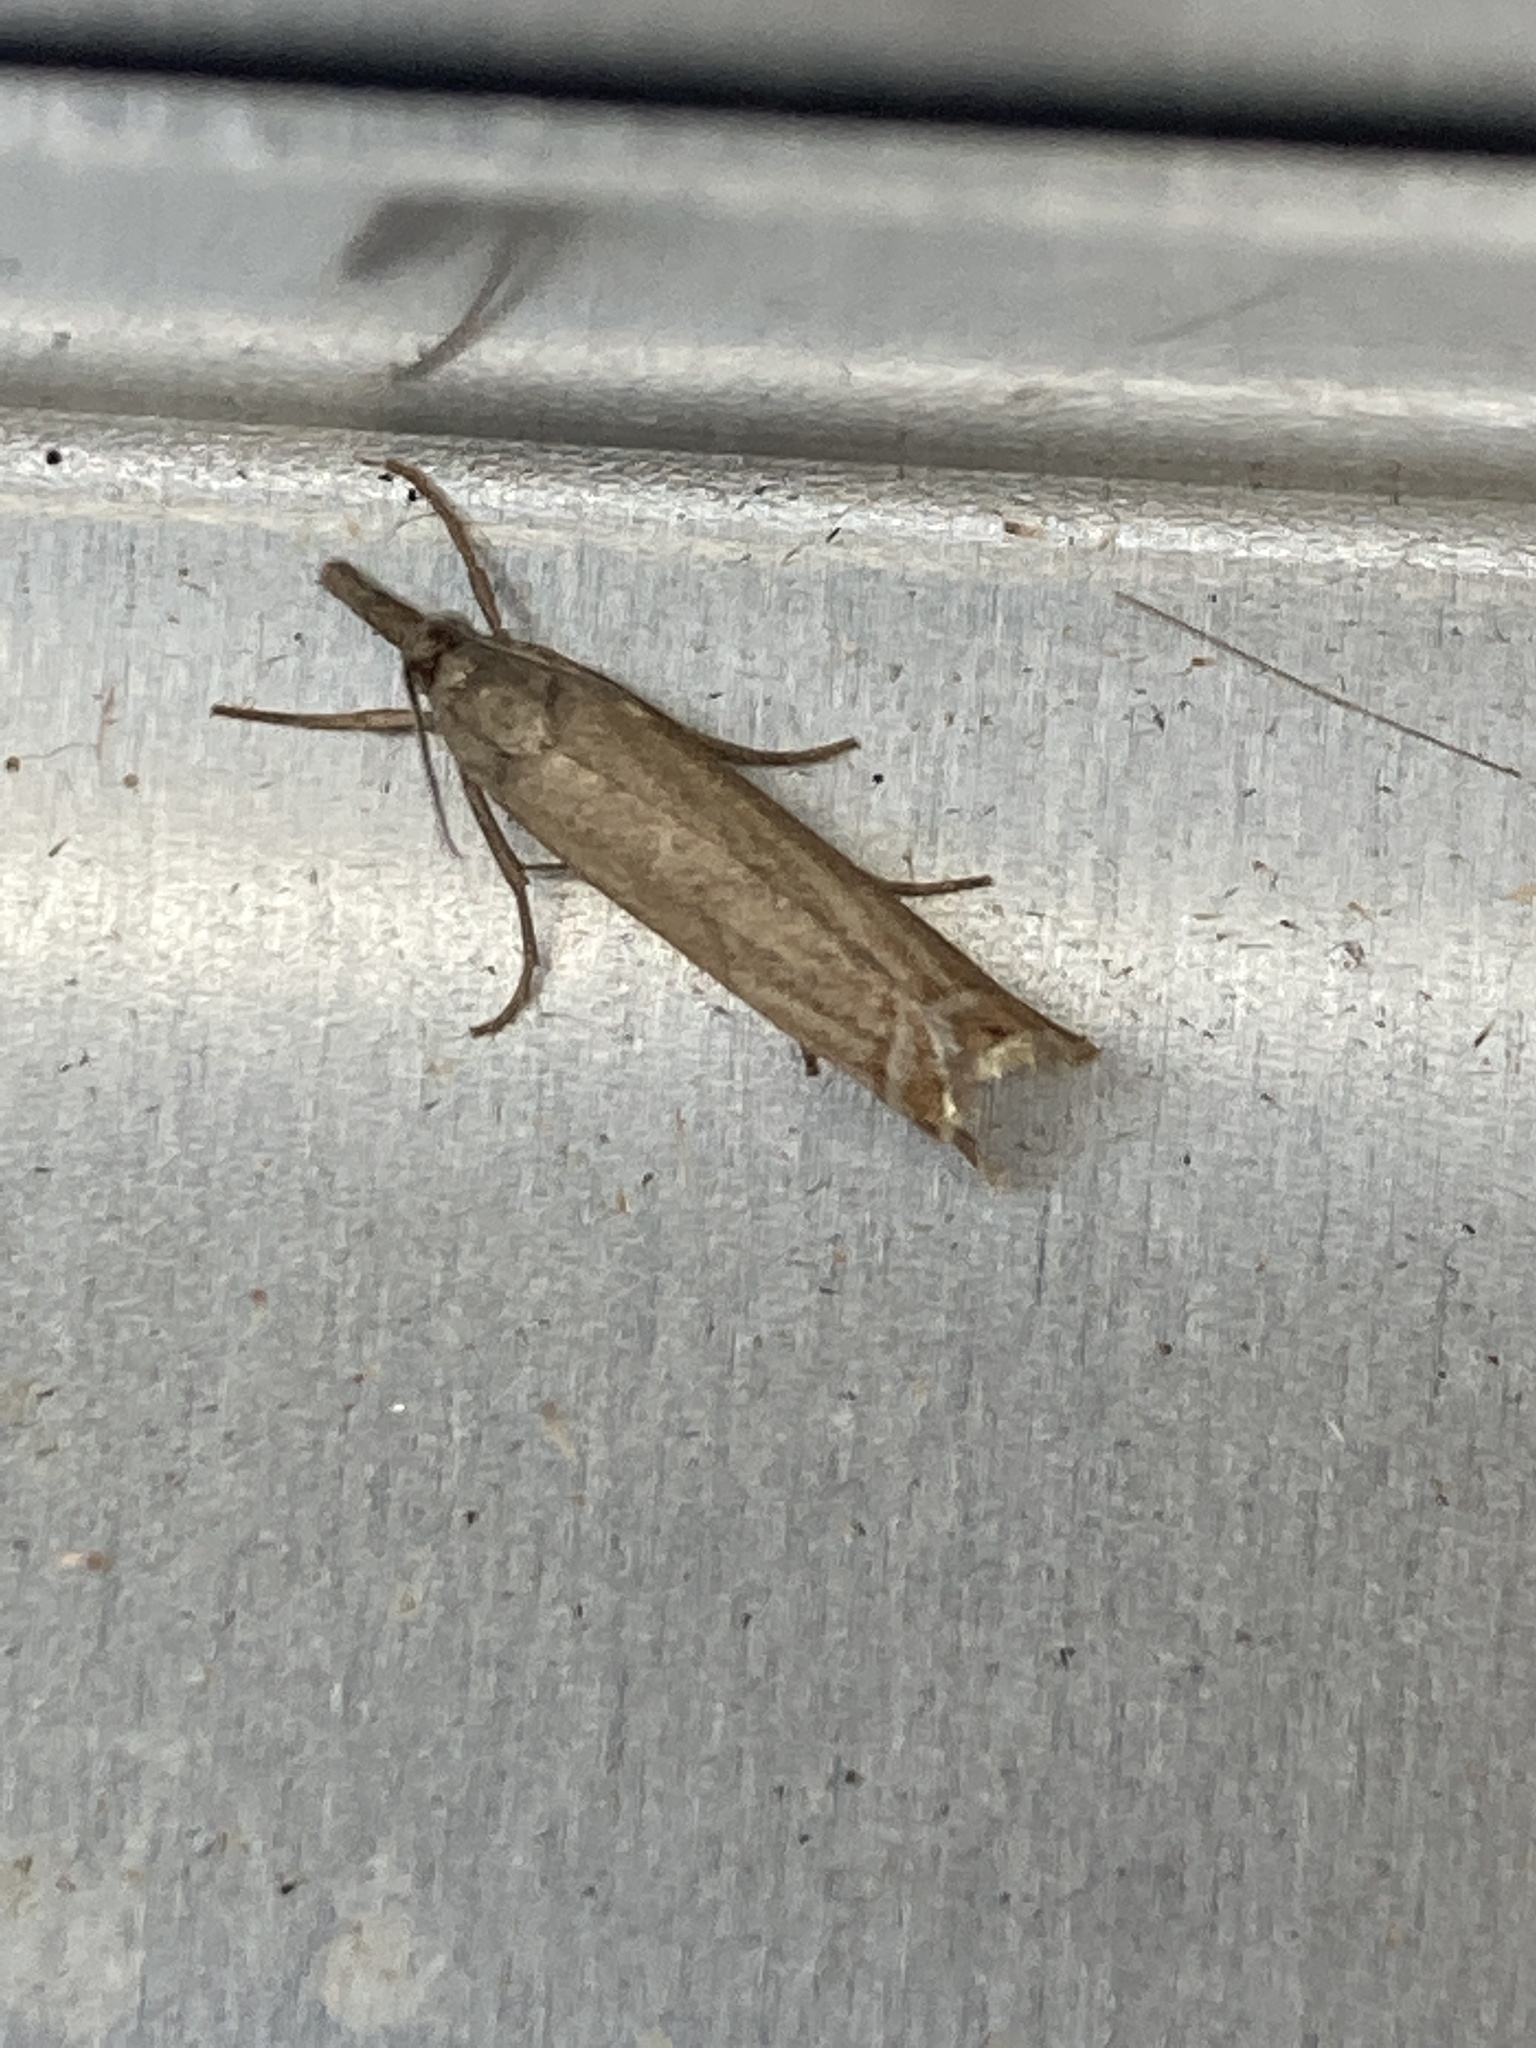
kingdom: Animalia
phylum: Arthropoda
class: Insecta
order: Lepidoptera
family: Crambidae
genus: Chrysoteuchia
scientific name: Chrysoteuchia culmella
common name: Garden grass-veneer
